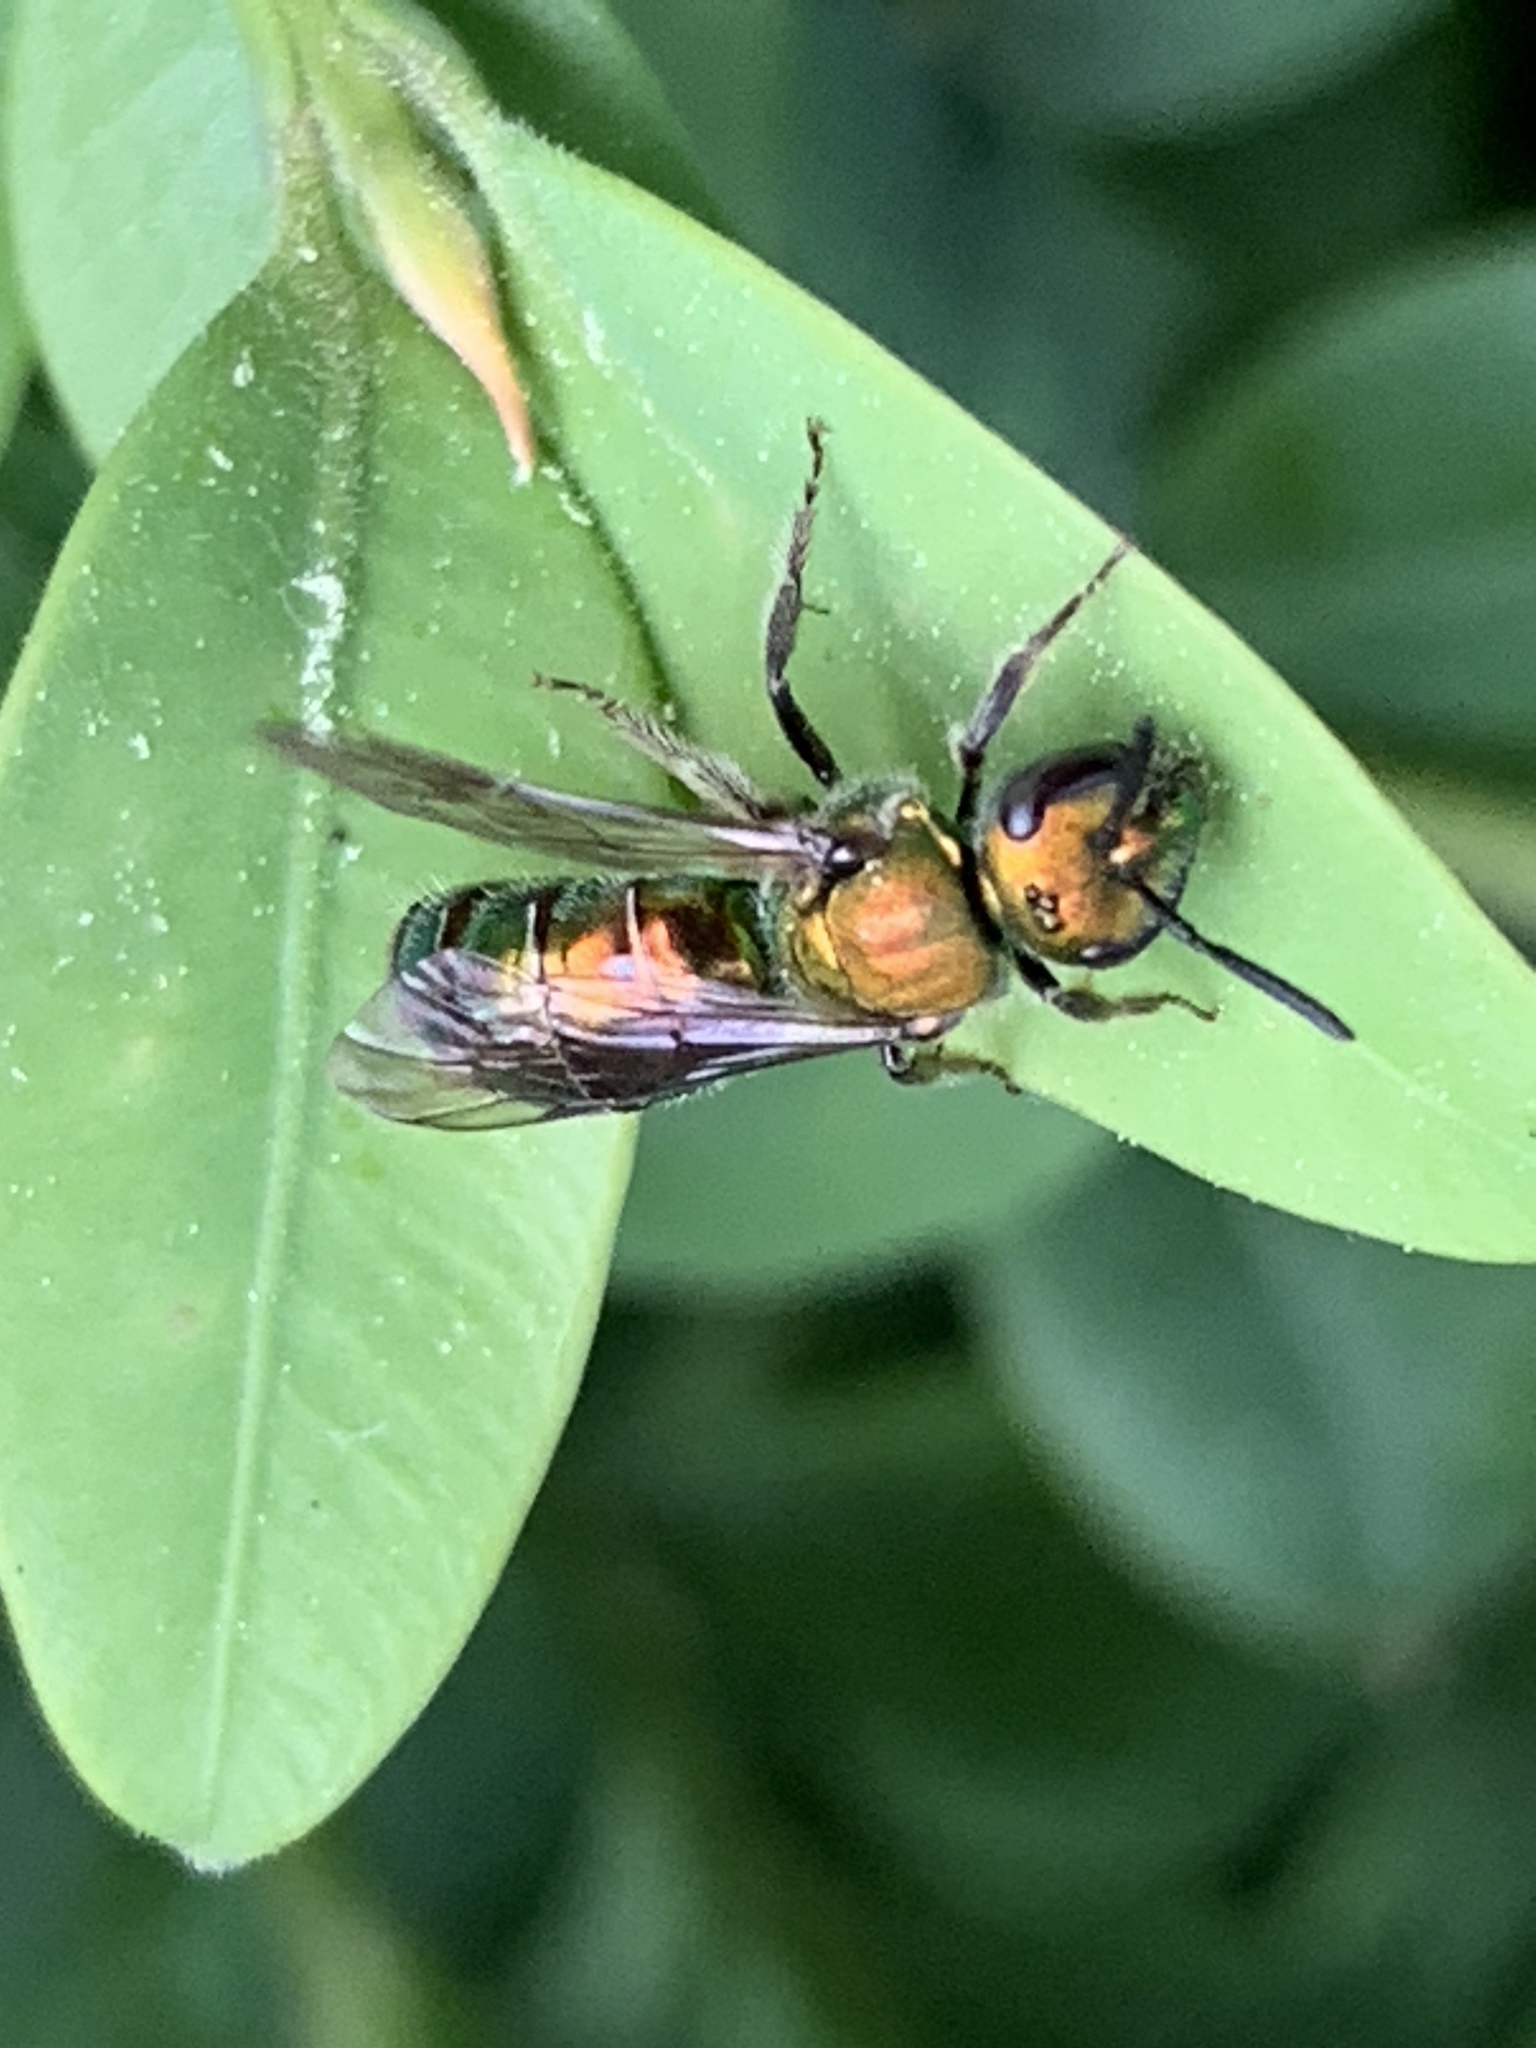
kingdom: Animalia
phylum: Arthropoda
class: Insecta
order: Hymenoptera
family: Halictidae
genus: Augochlora
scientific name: Augochlora pura
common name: Pure green sweat bee
